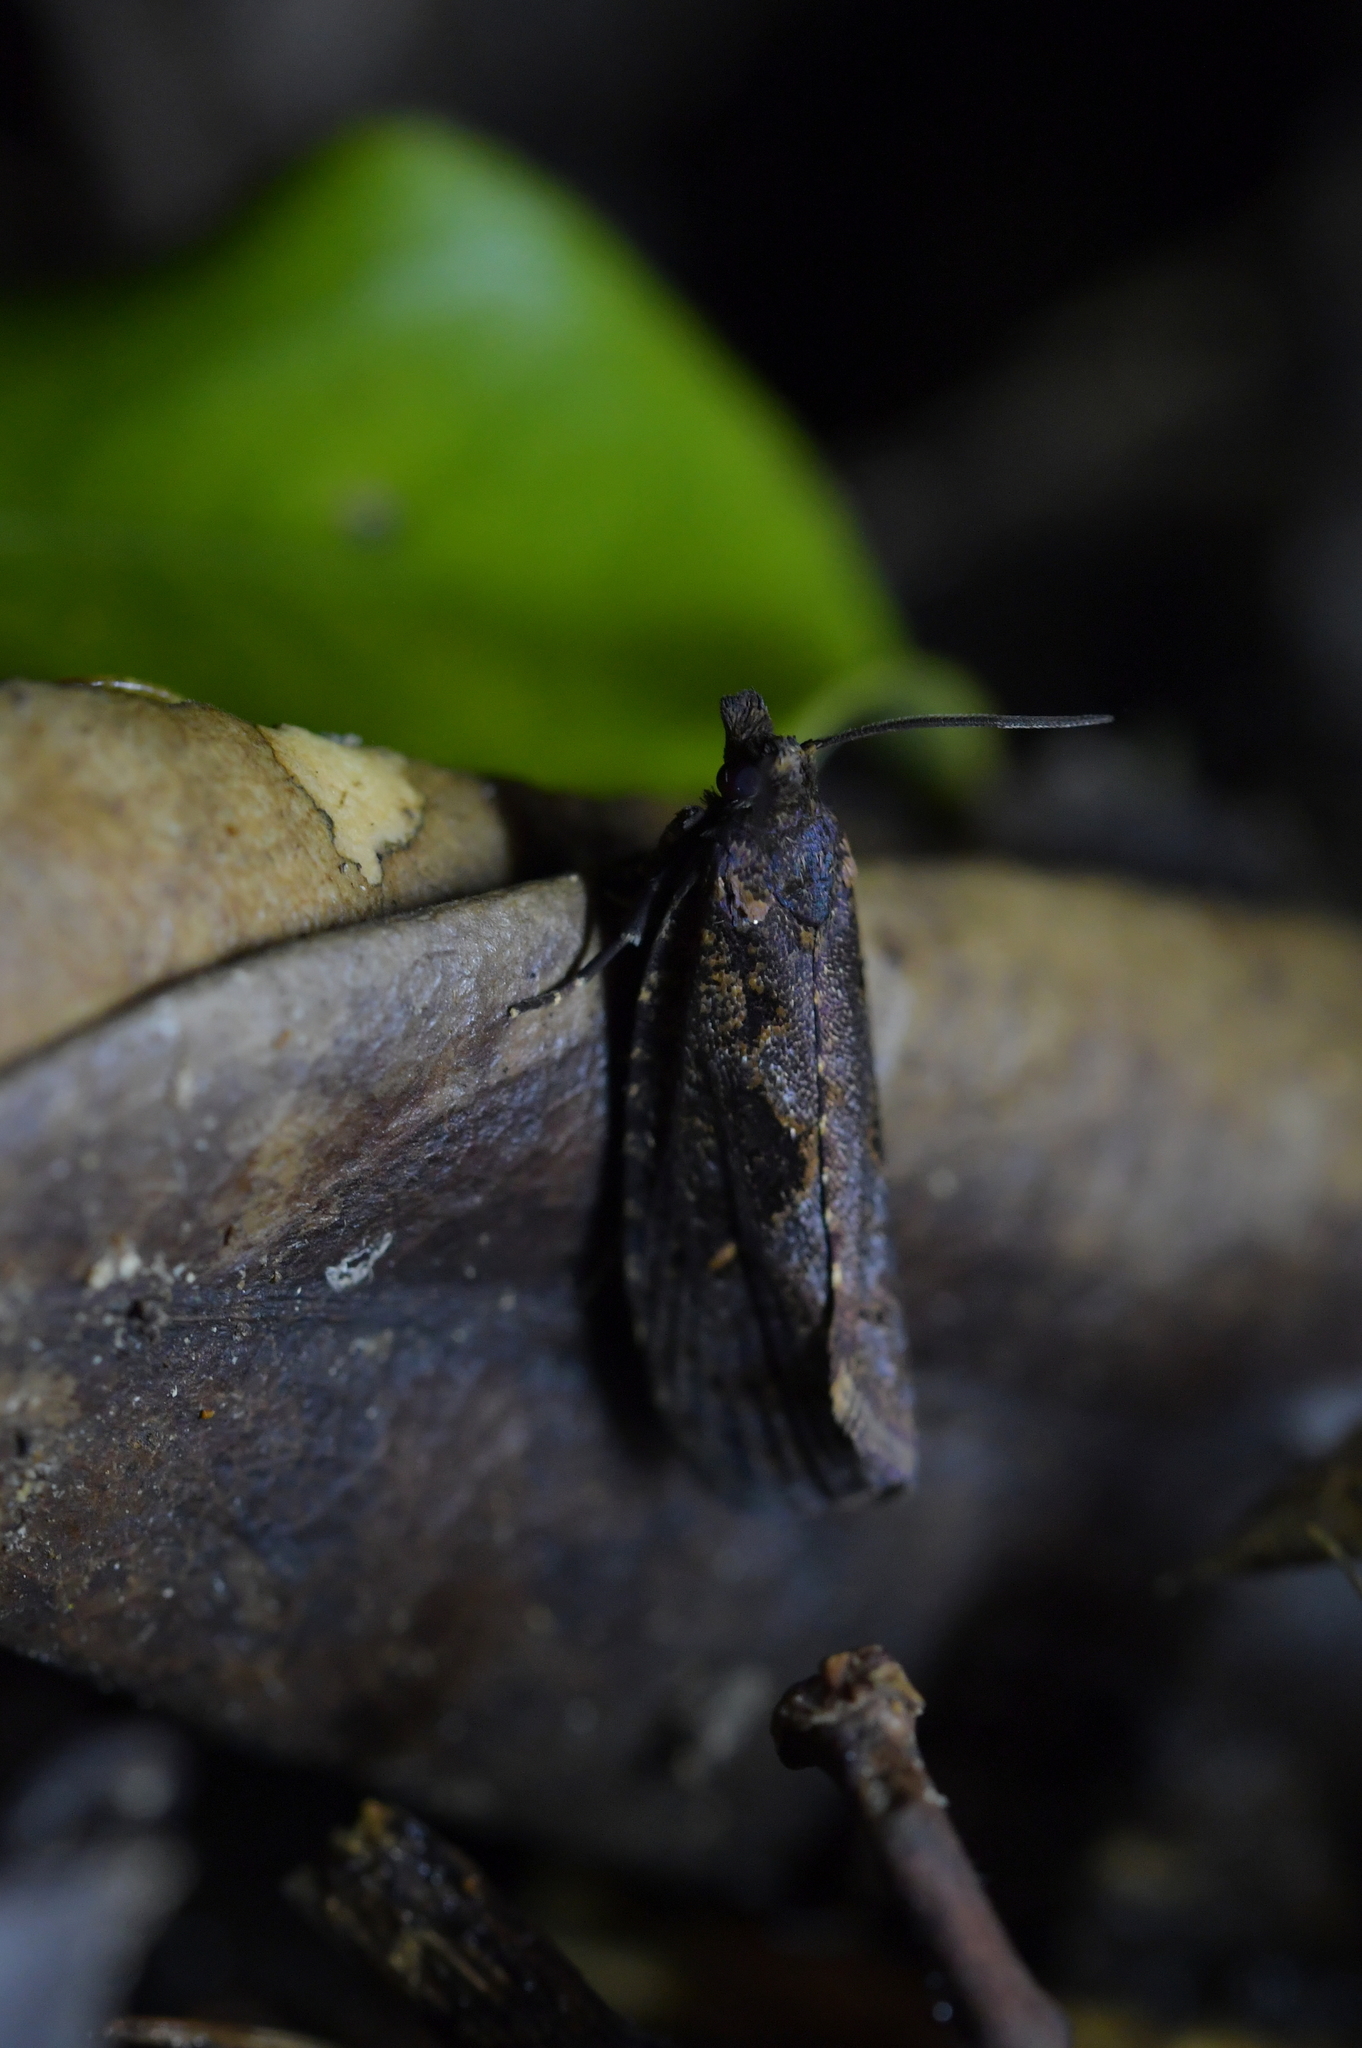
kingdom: Animalia
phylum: Arthropoda
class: Insecta
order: Lepidoptera
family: Tortricidae
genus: Cryptaspasma
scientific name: Cryptaspasma querula
